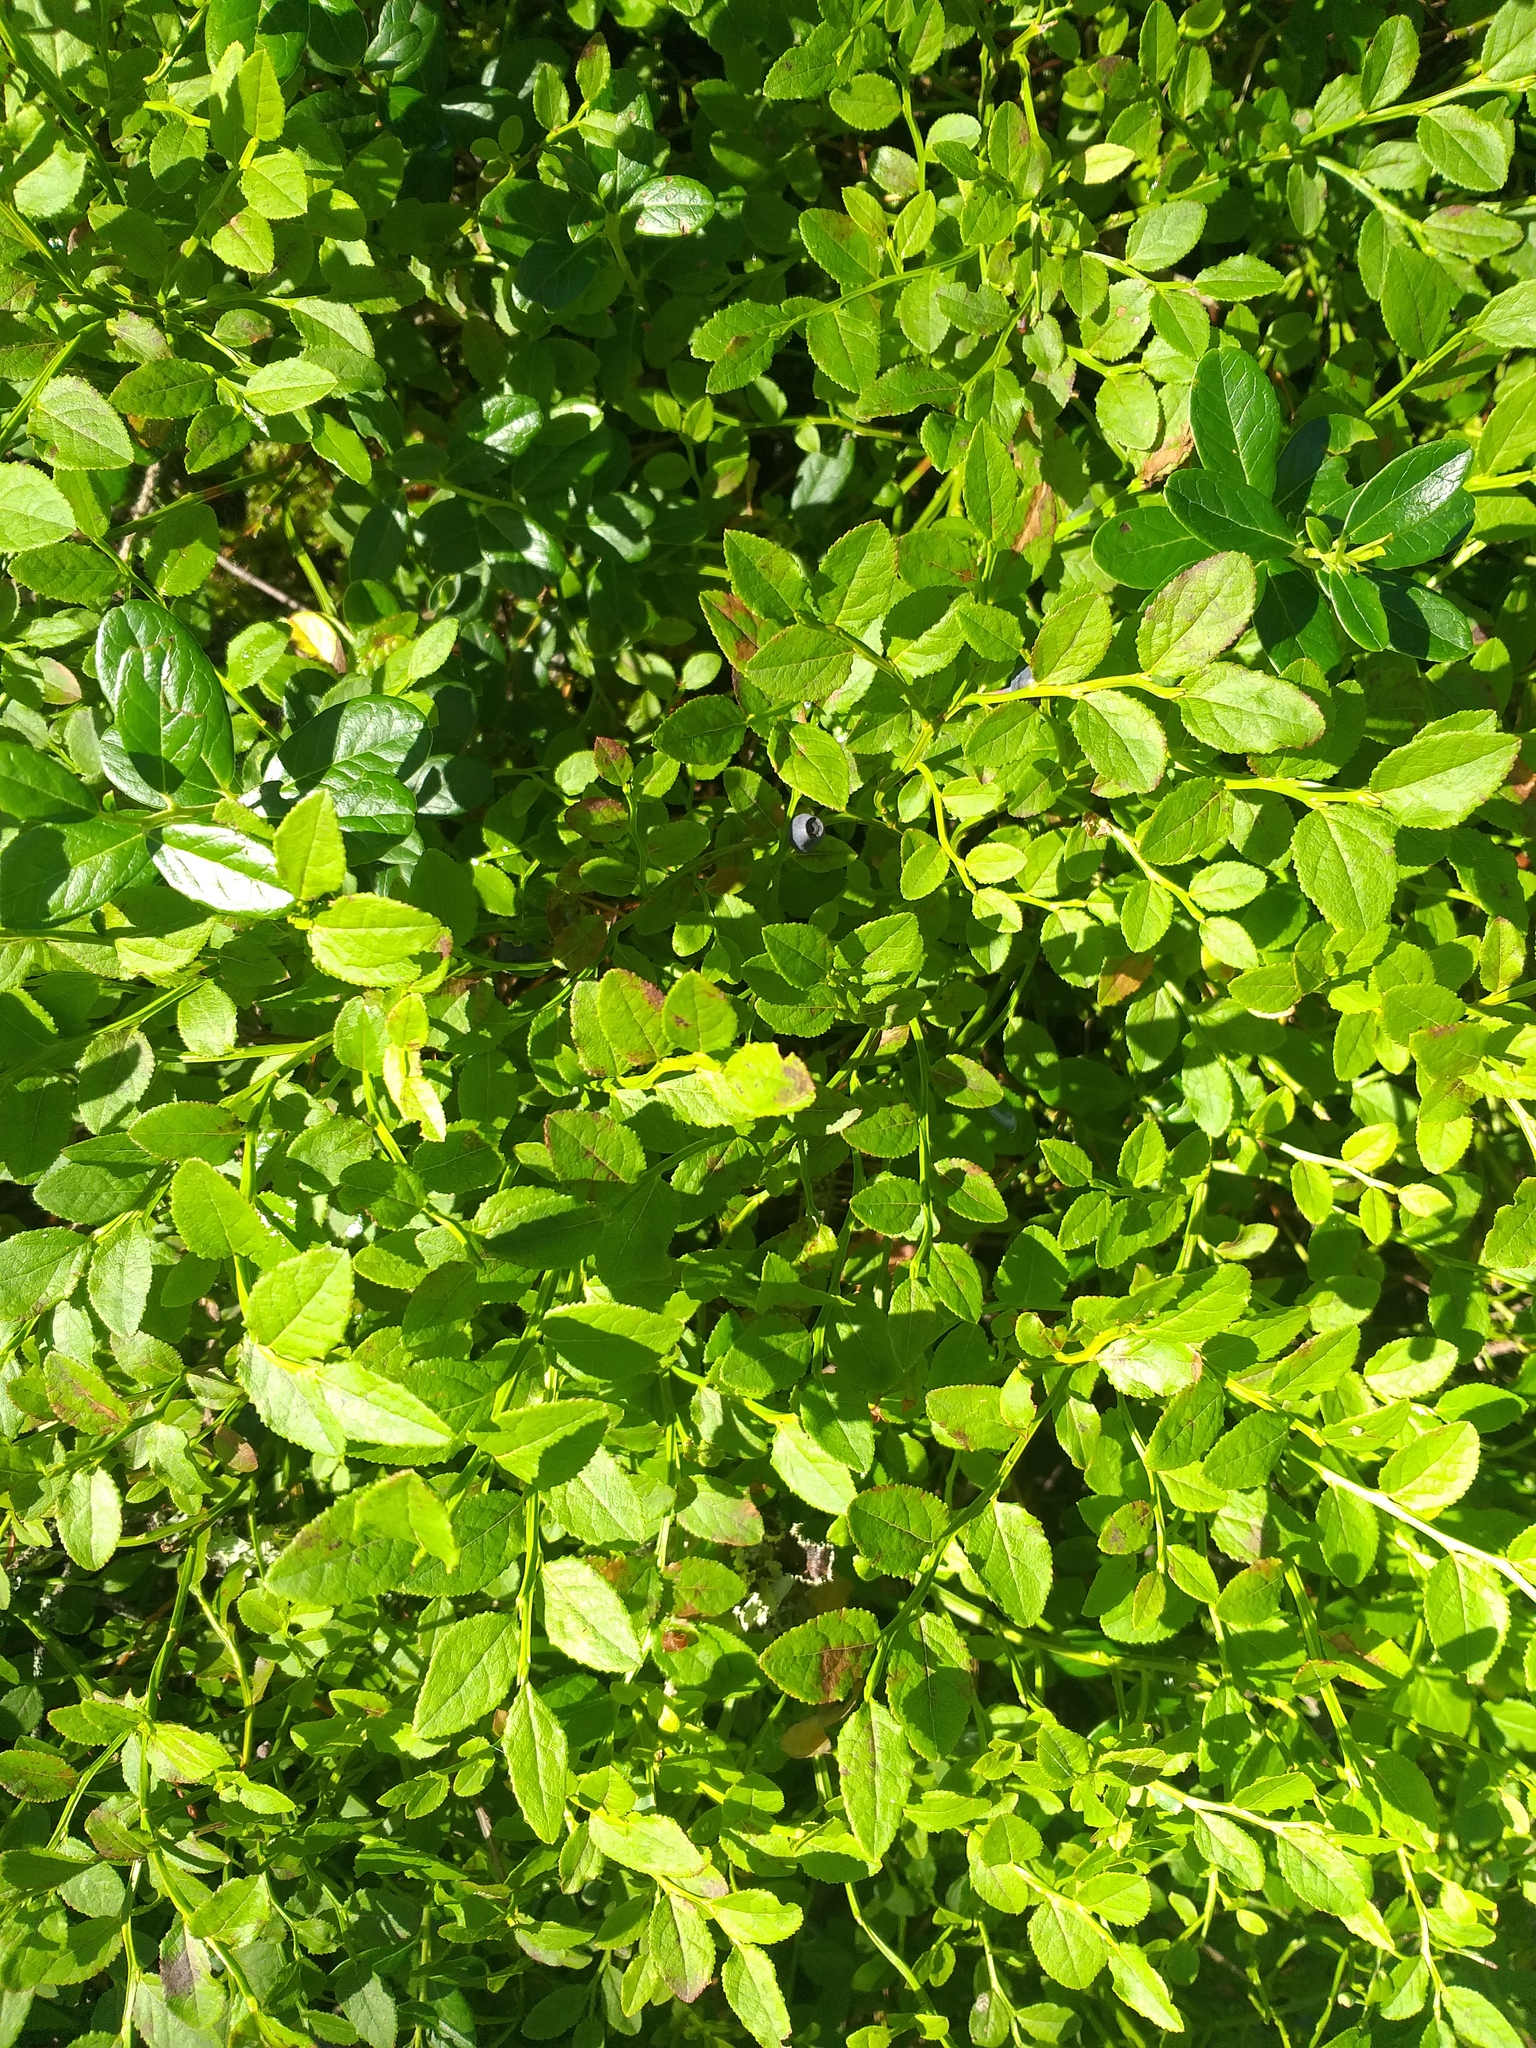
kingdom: Plantae
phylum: Tracheophyta
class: Magnoliopsida
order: Ericales
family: Ericaceae
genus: Vaccinium
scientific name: Vaccinium myrtillus
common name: Bilberry
